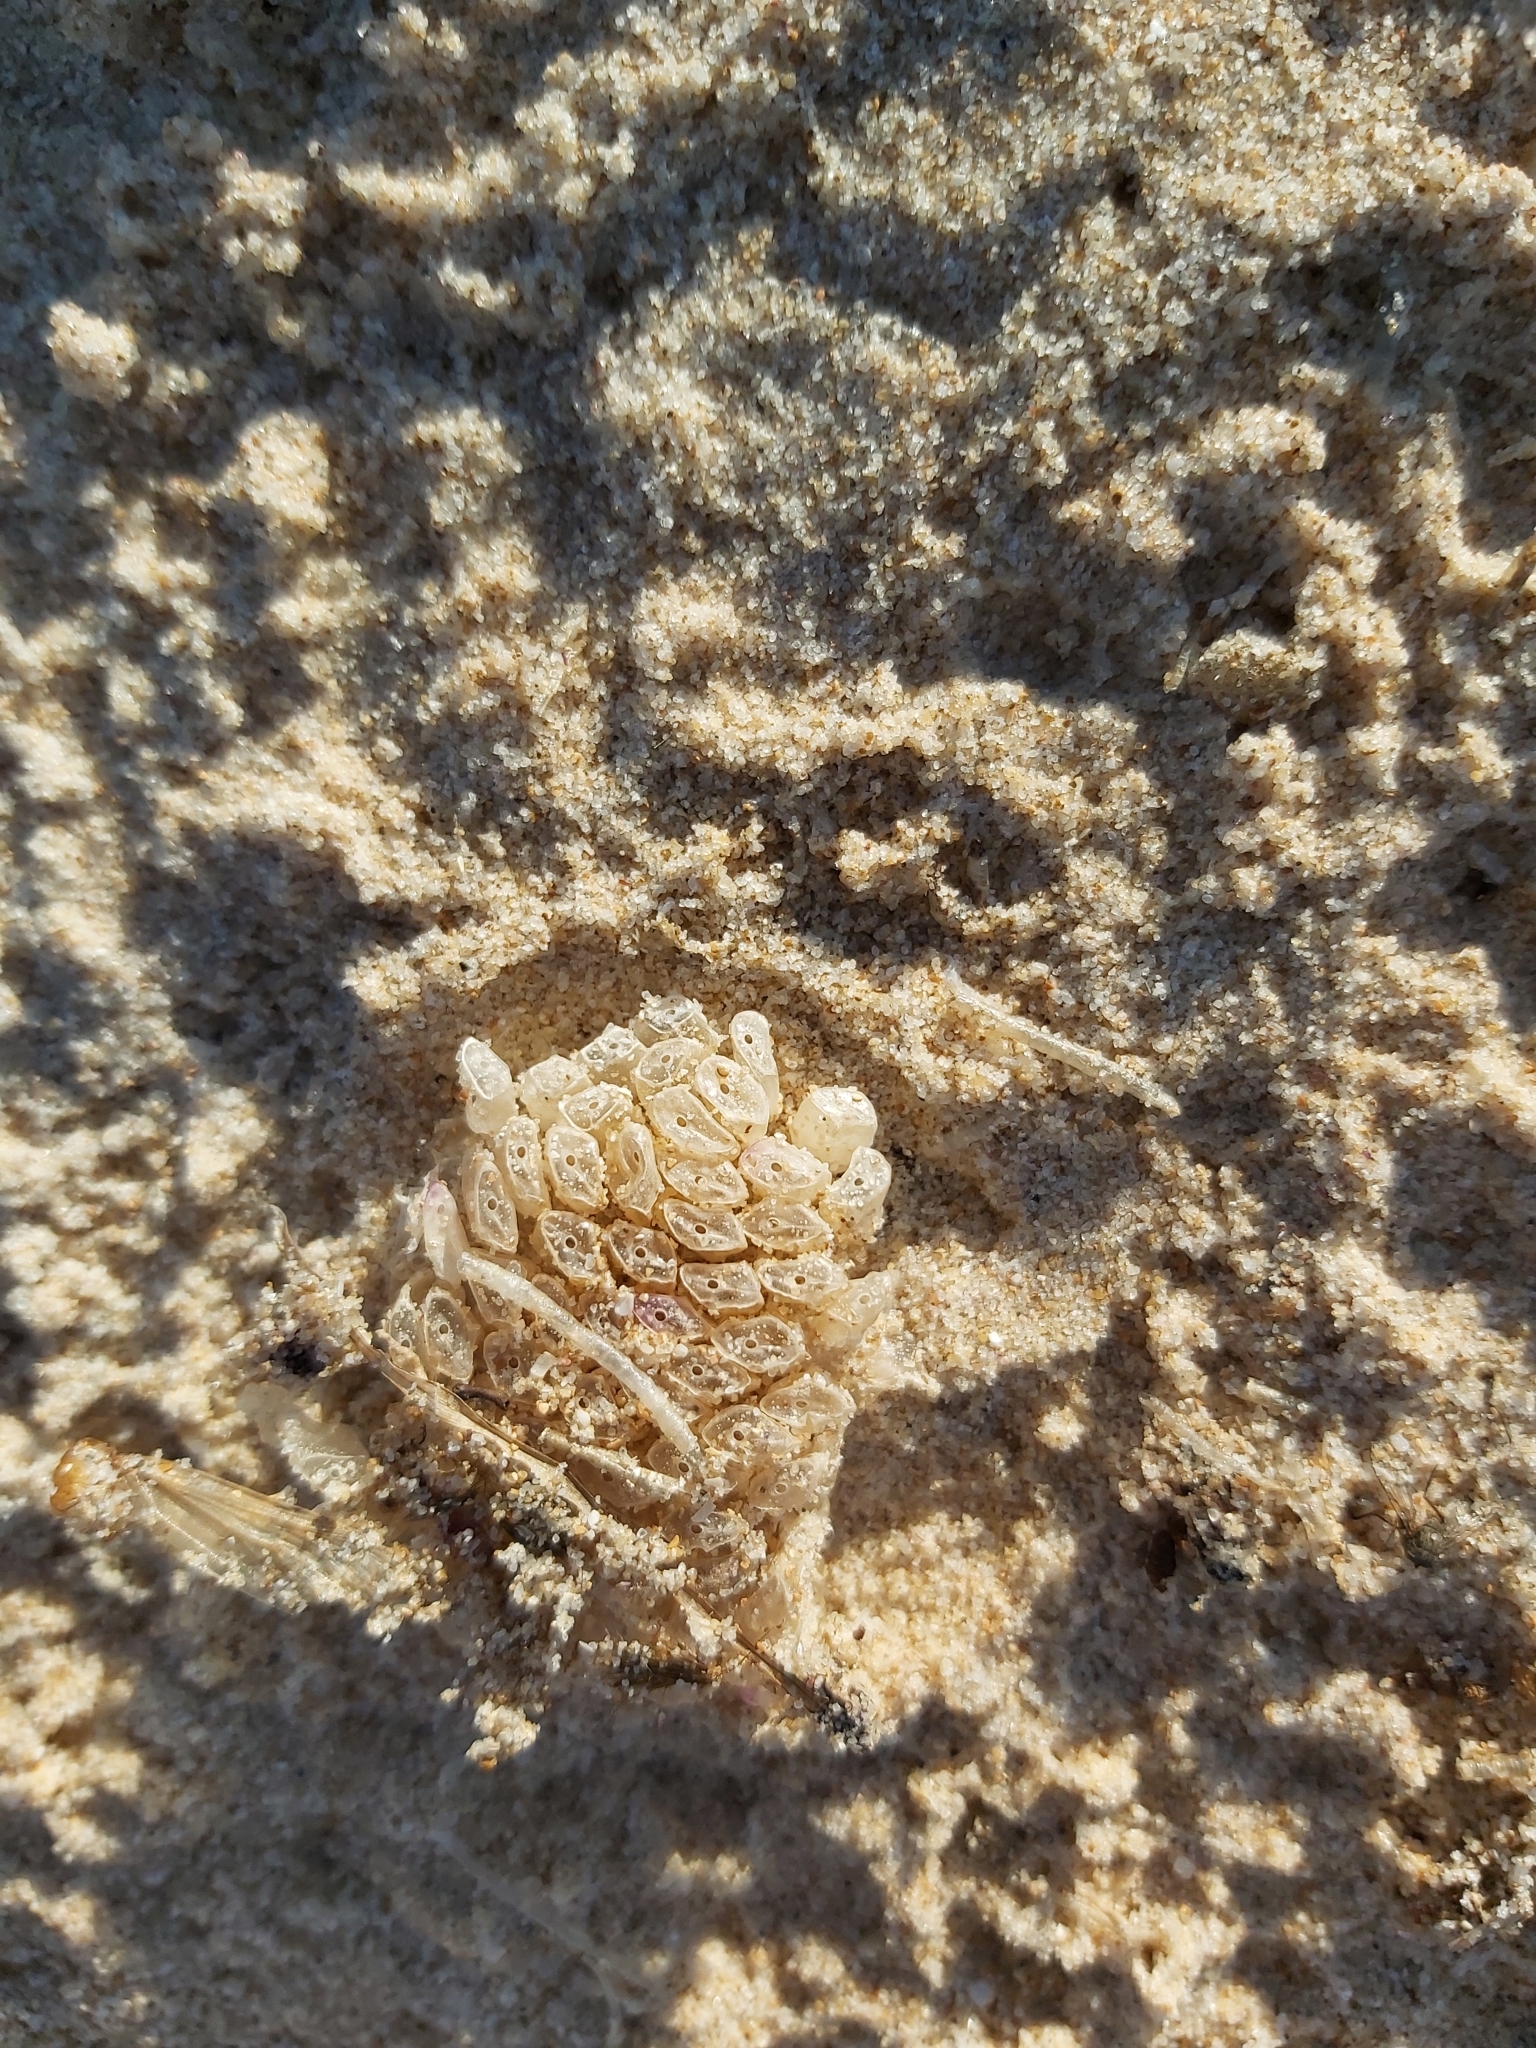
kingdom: Animalia
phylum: Mollusca
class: Gastropoda
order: Neogastropoda
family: Muricidae
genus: Dicathais
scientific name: Dicathais orbita
